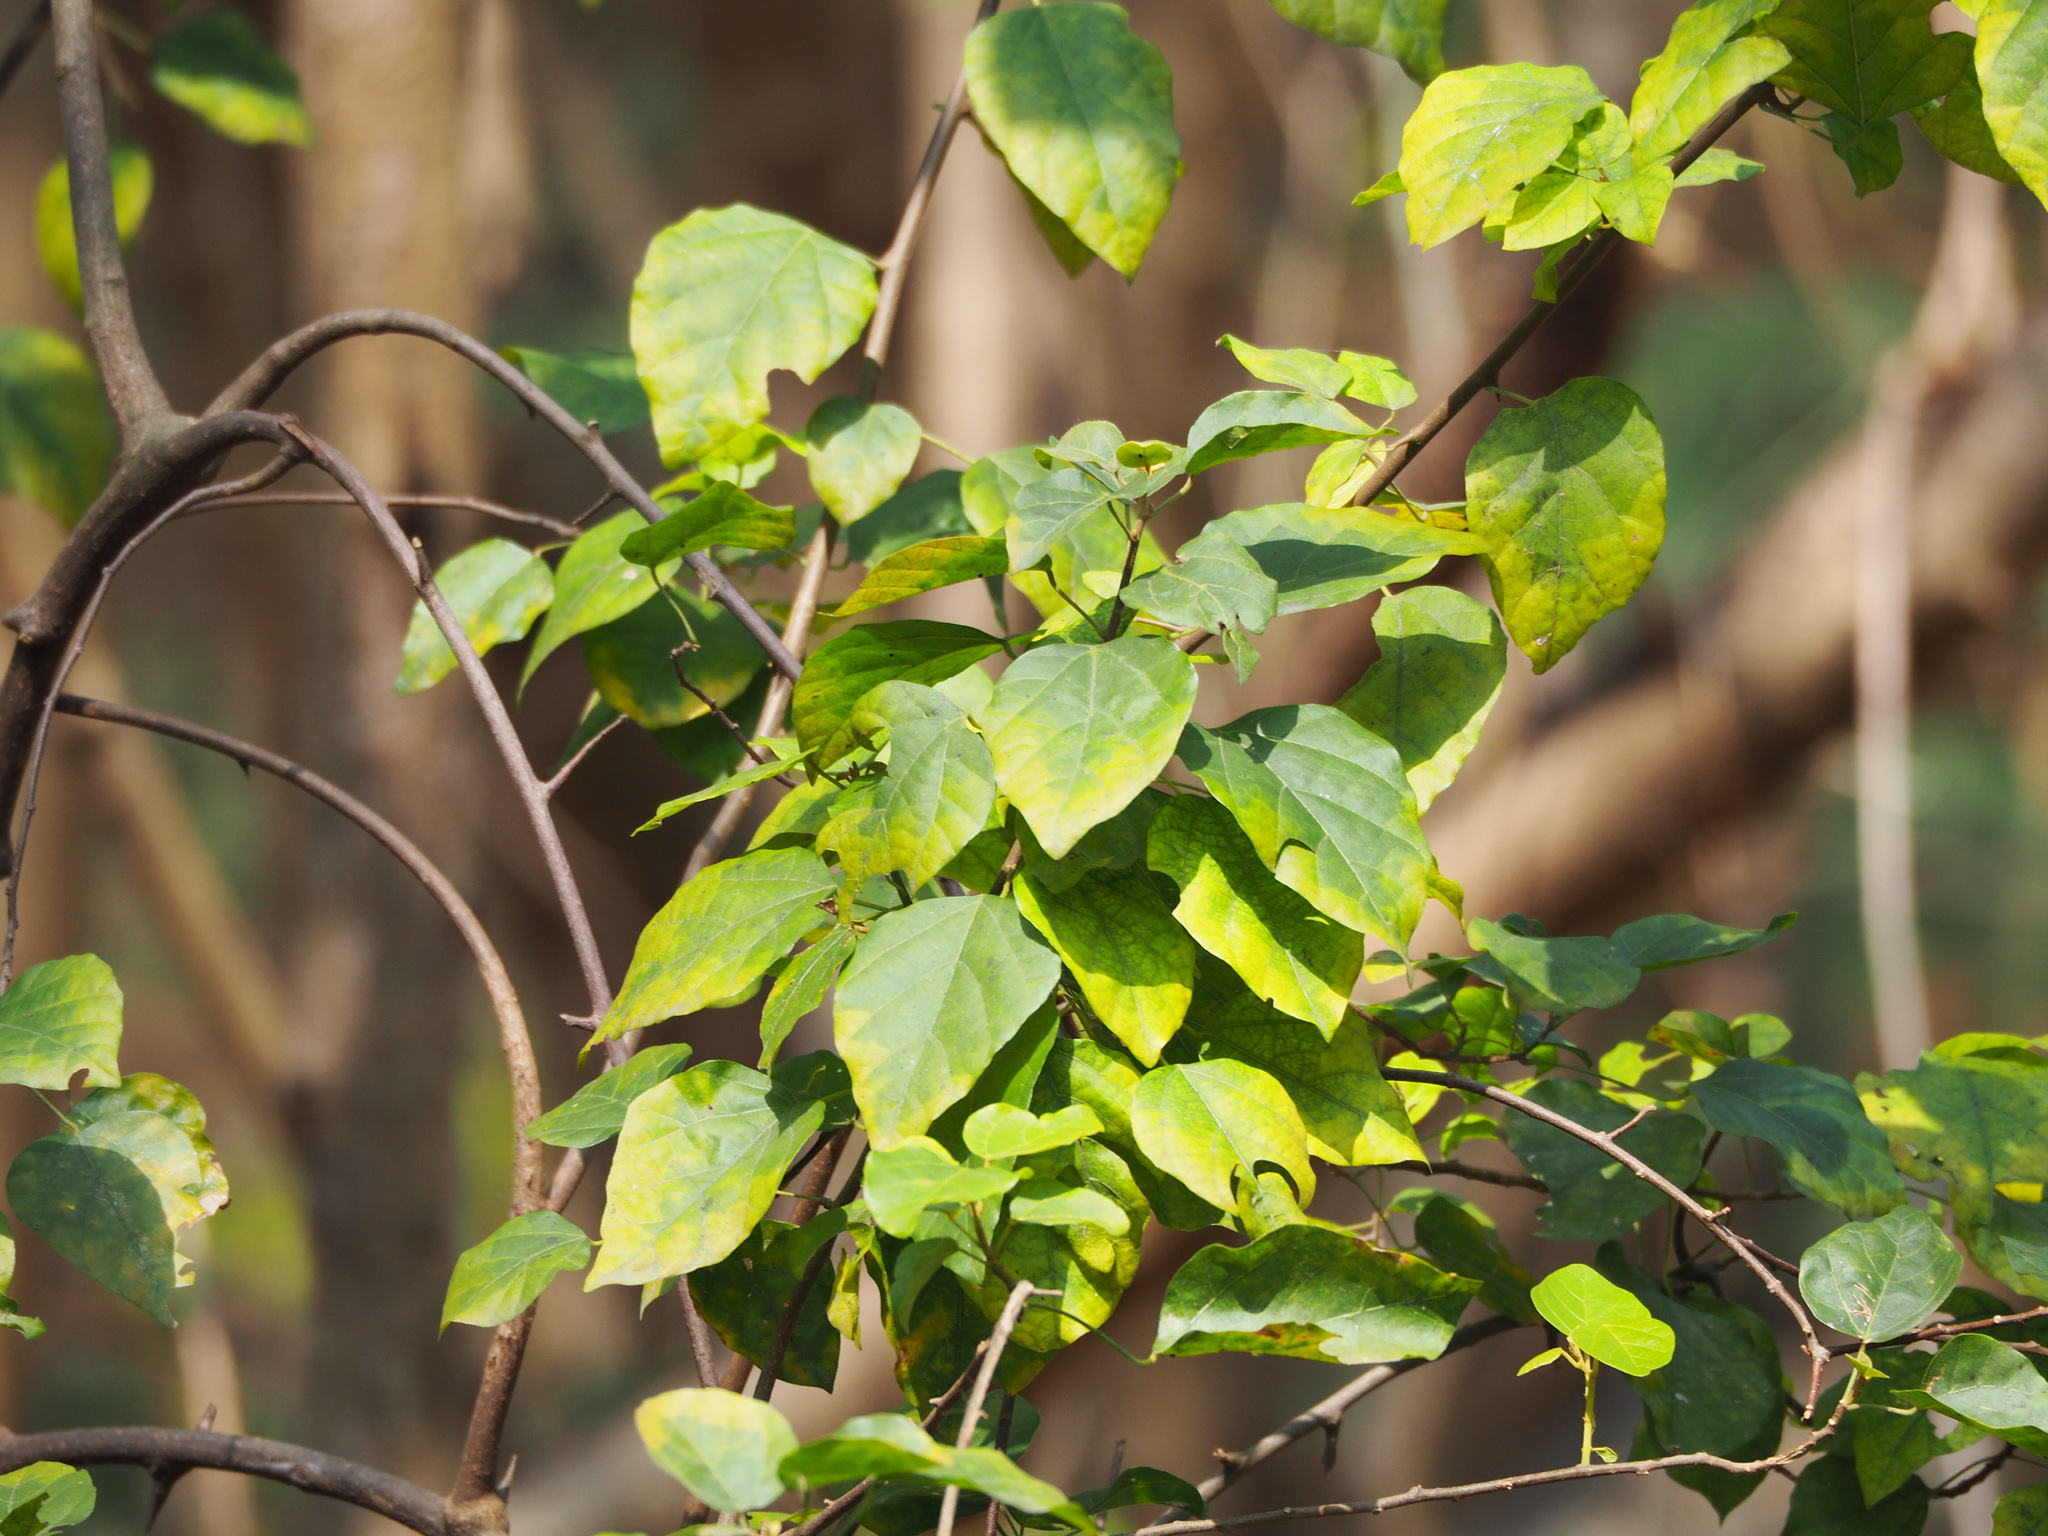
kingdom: Plantae
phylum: Tracheophyta
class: Magnoliopsida
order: Malpighiales
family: Euphorbiaceae
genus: Mallotus
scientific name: Mallotus repandus
